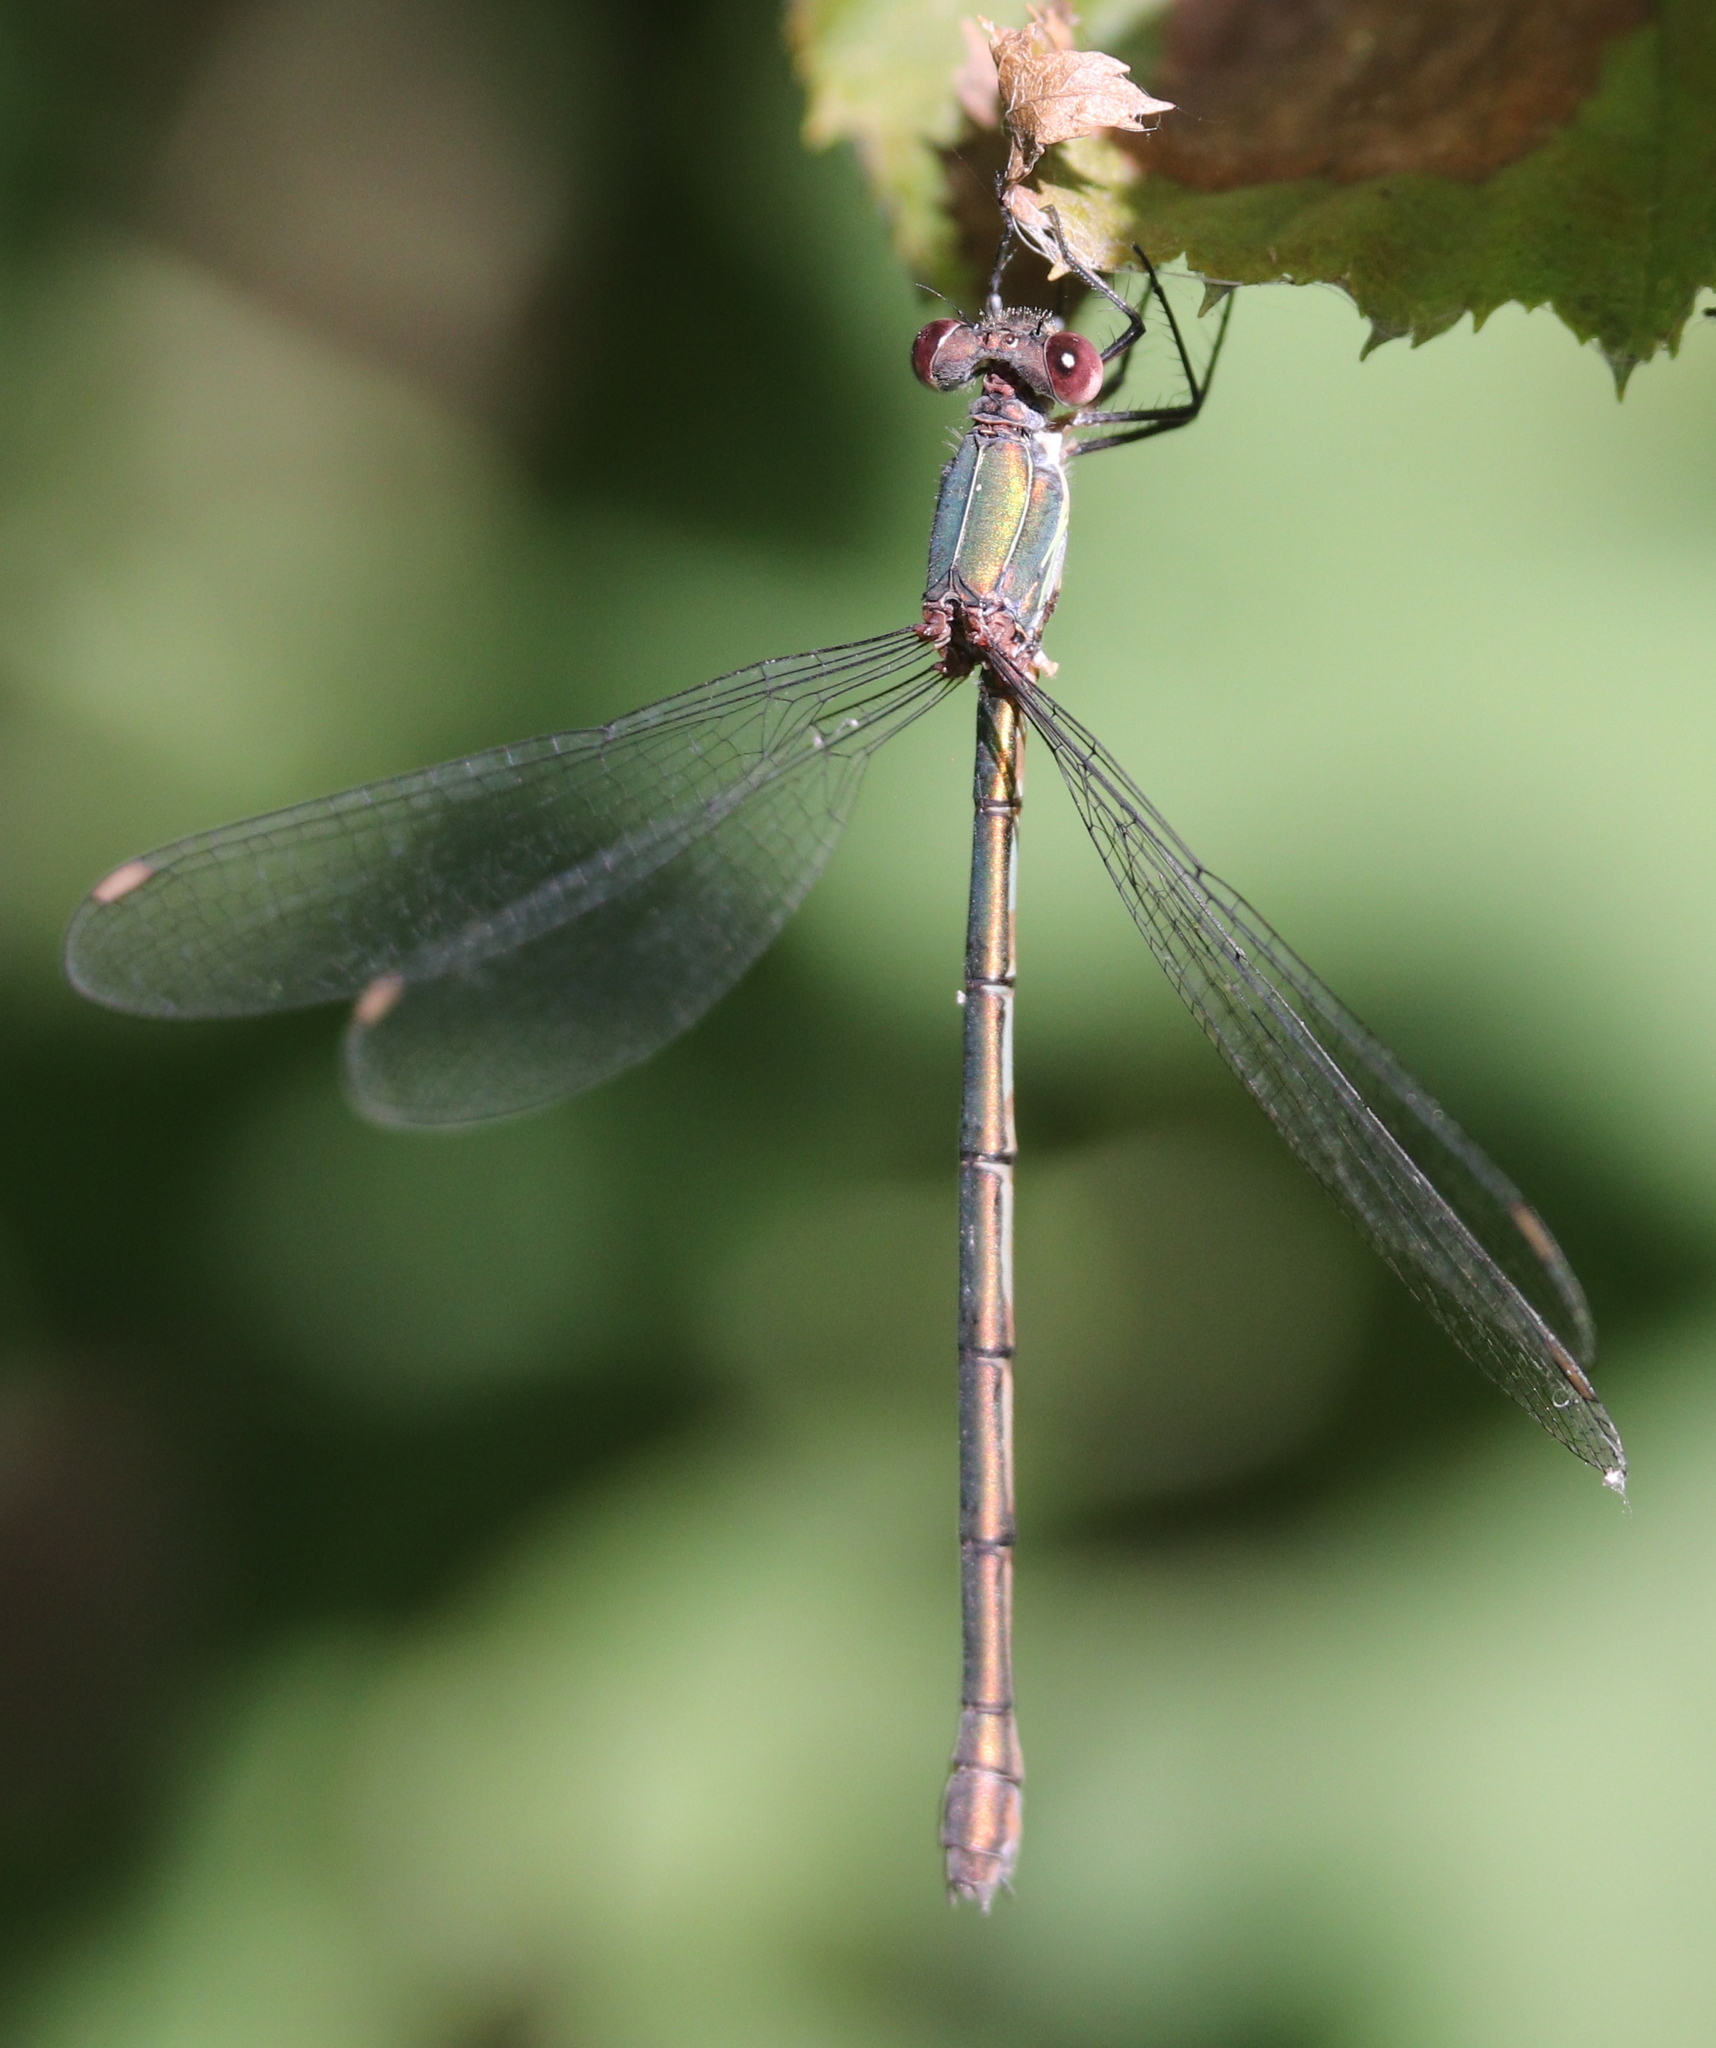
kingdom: Animalia
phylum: Arthropoda
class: Insecta
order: Odonata
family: Lestidae
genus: Chalcolestes
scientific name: Chalcolestes viridis
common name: Green emerald damselfly
